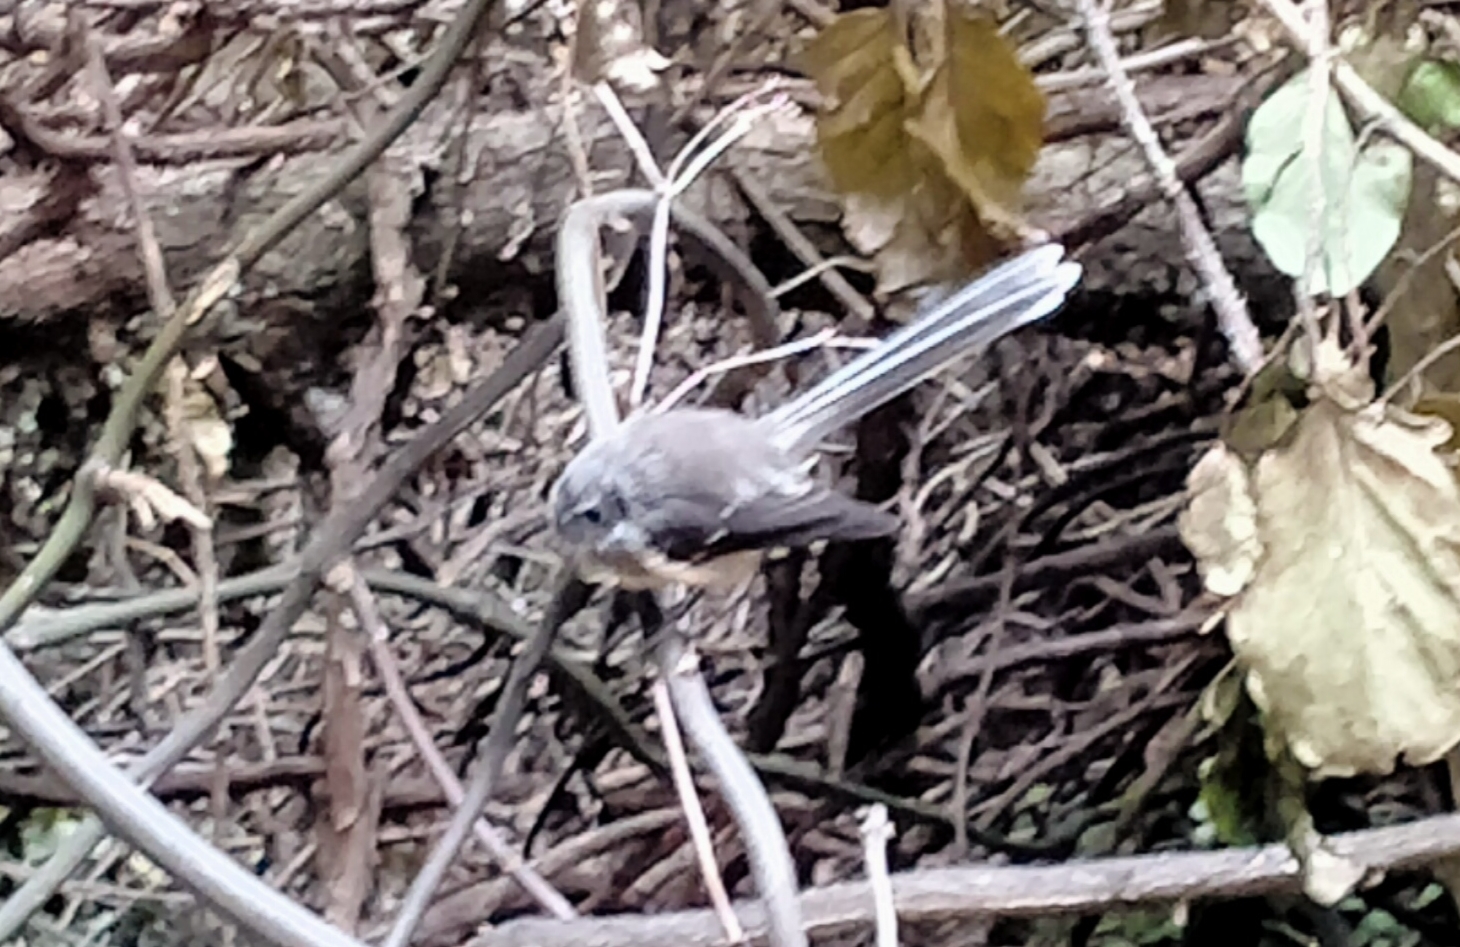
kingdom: Animalia
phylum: Chordata
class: Aves
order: Passeriformes
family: Rhipiduridae
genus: Rhipidura
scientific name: Rhipidura fuliginosa
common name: New zealand fantail
